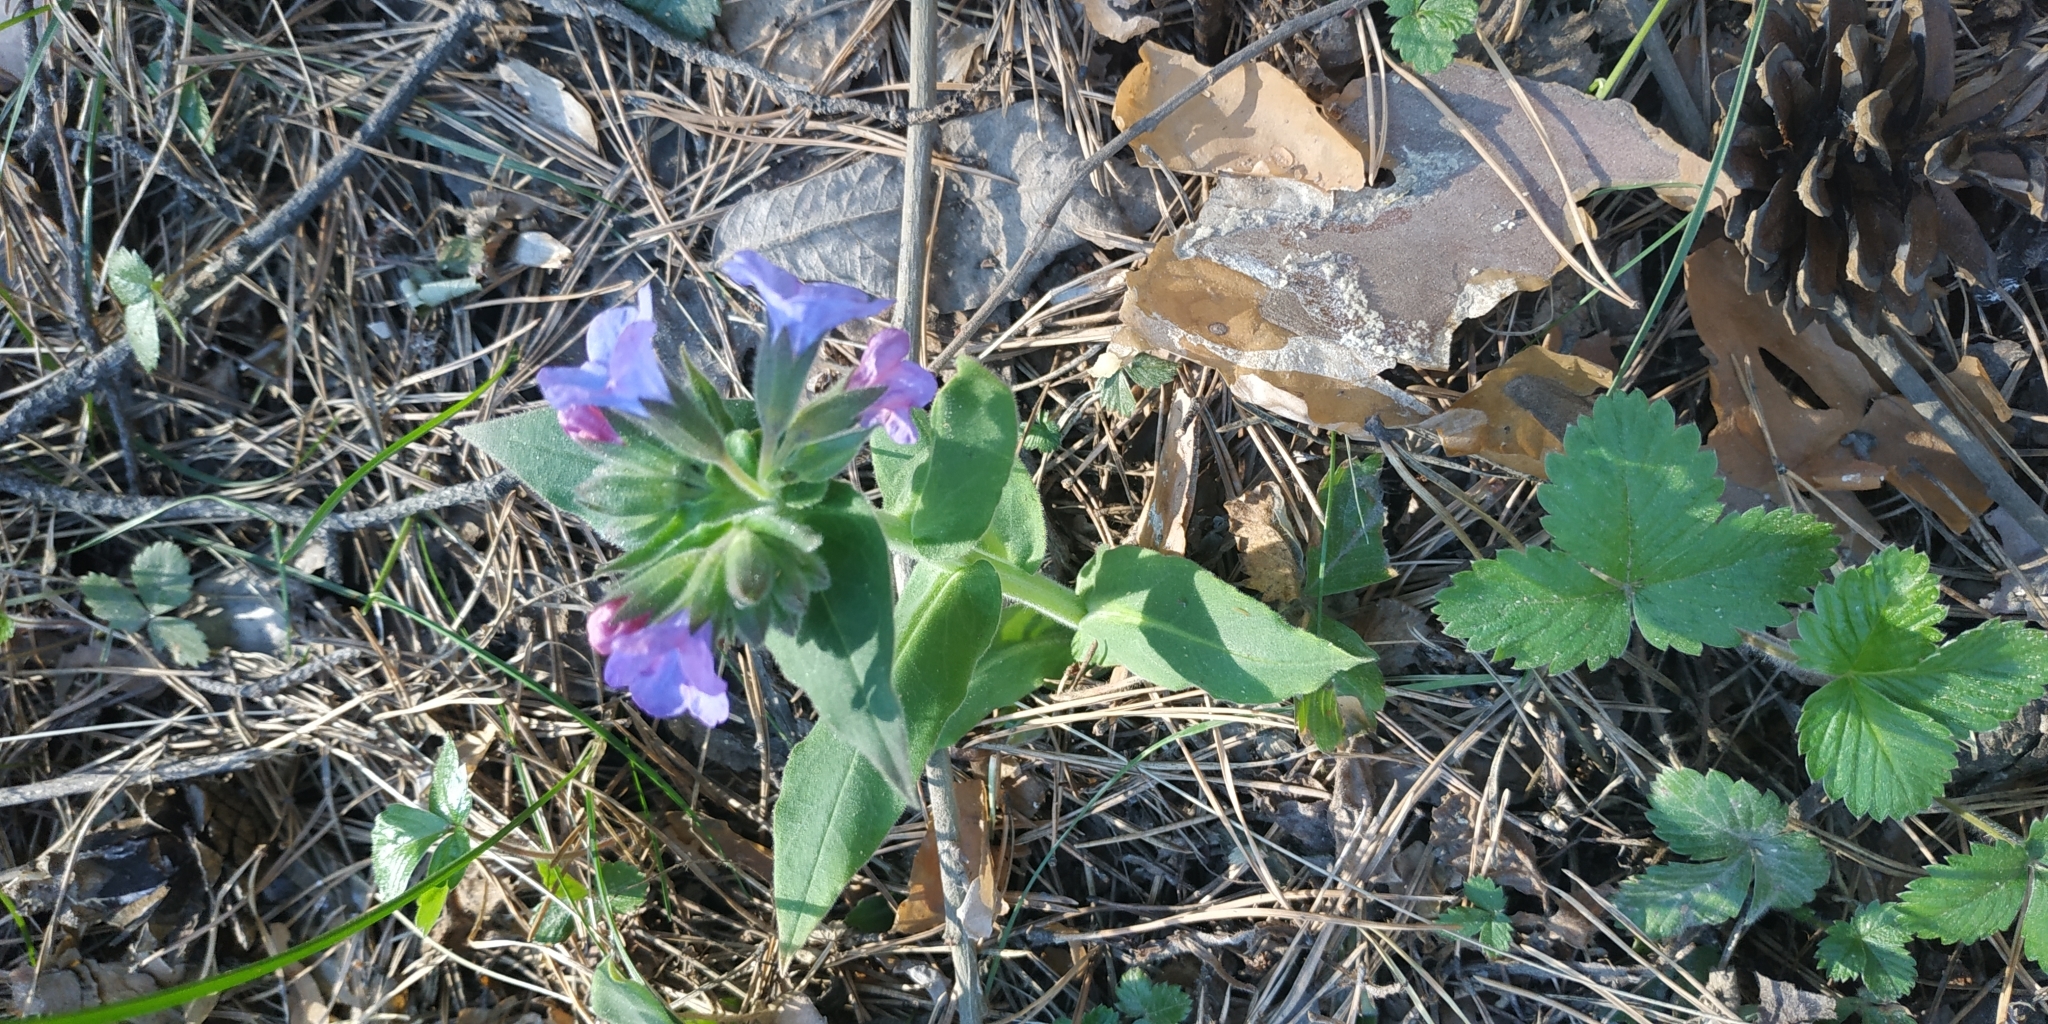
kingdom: Plantae
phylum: Tracheophyta
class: Magnoliopsida
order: Boraginales
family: Boraginaceae
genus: Pulmonaria
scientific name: Pulmonaria mollis
